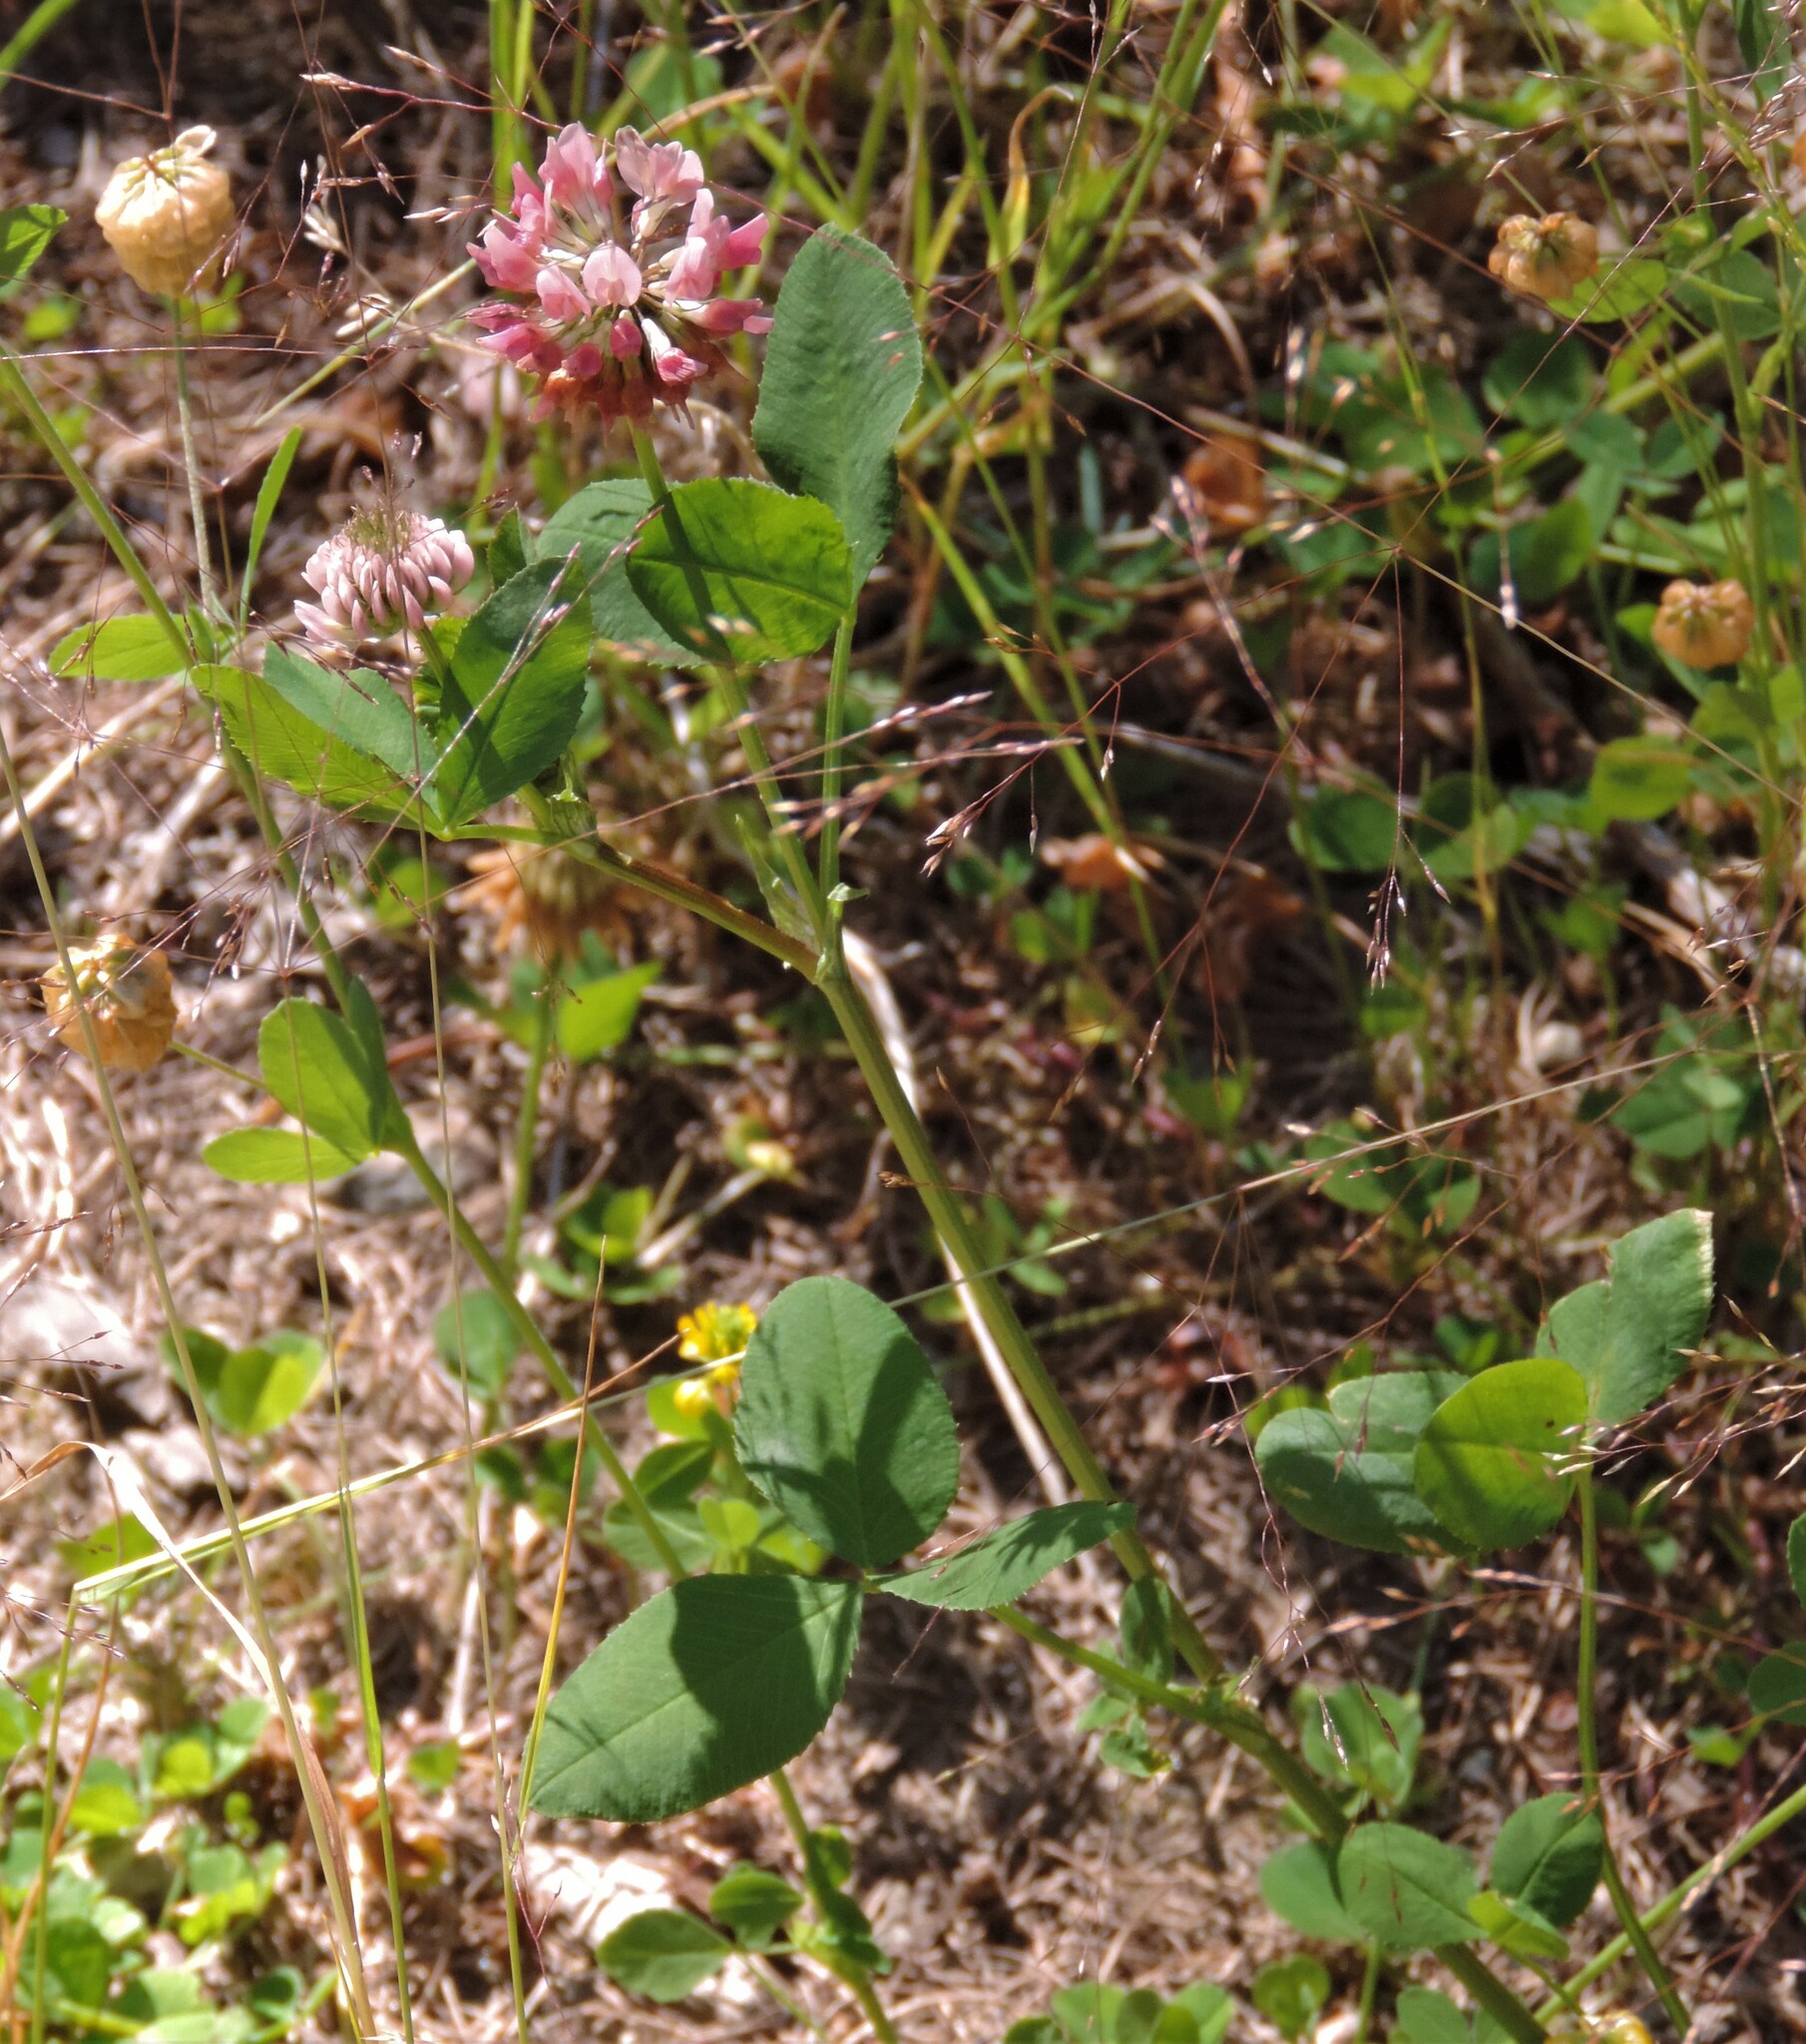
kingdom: Plantae
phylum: Tracheophyta
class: Magnoliopsida
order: Fabales
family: Fabaceae
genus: Trifolium
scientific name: Trifolium hybridum
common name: Alsike clover
